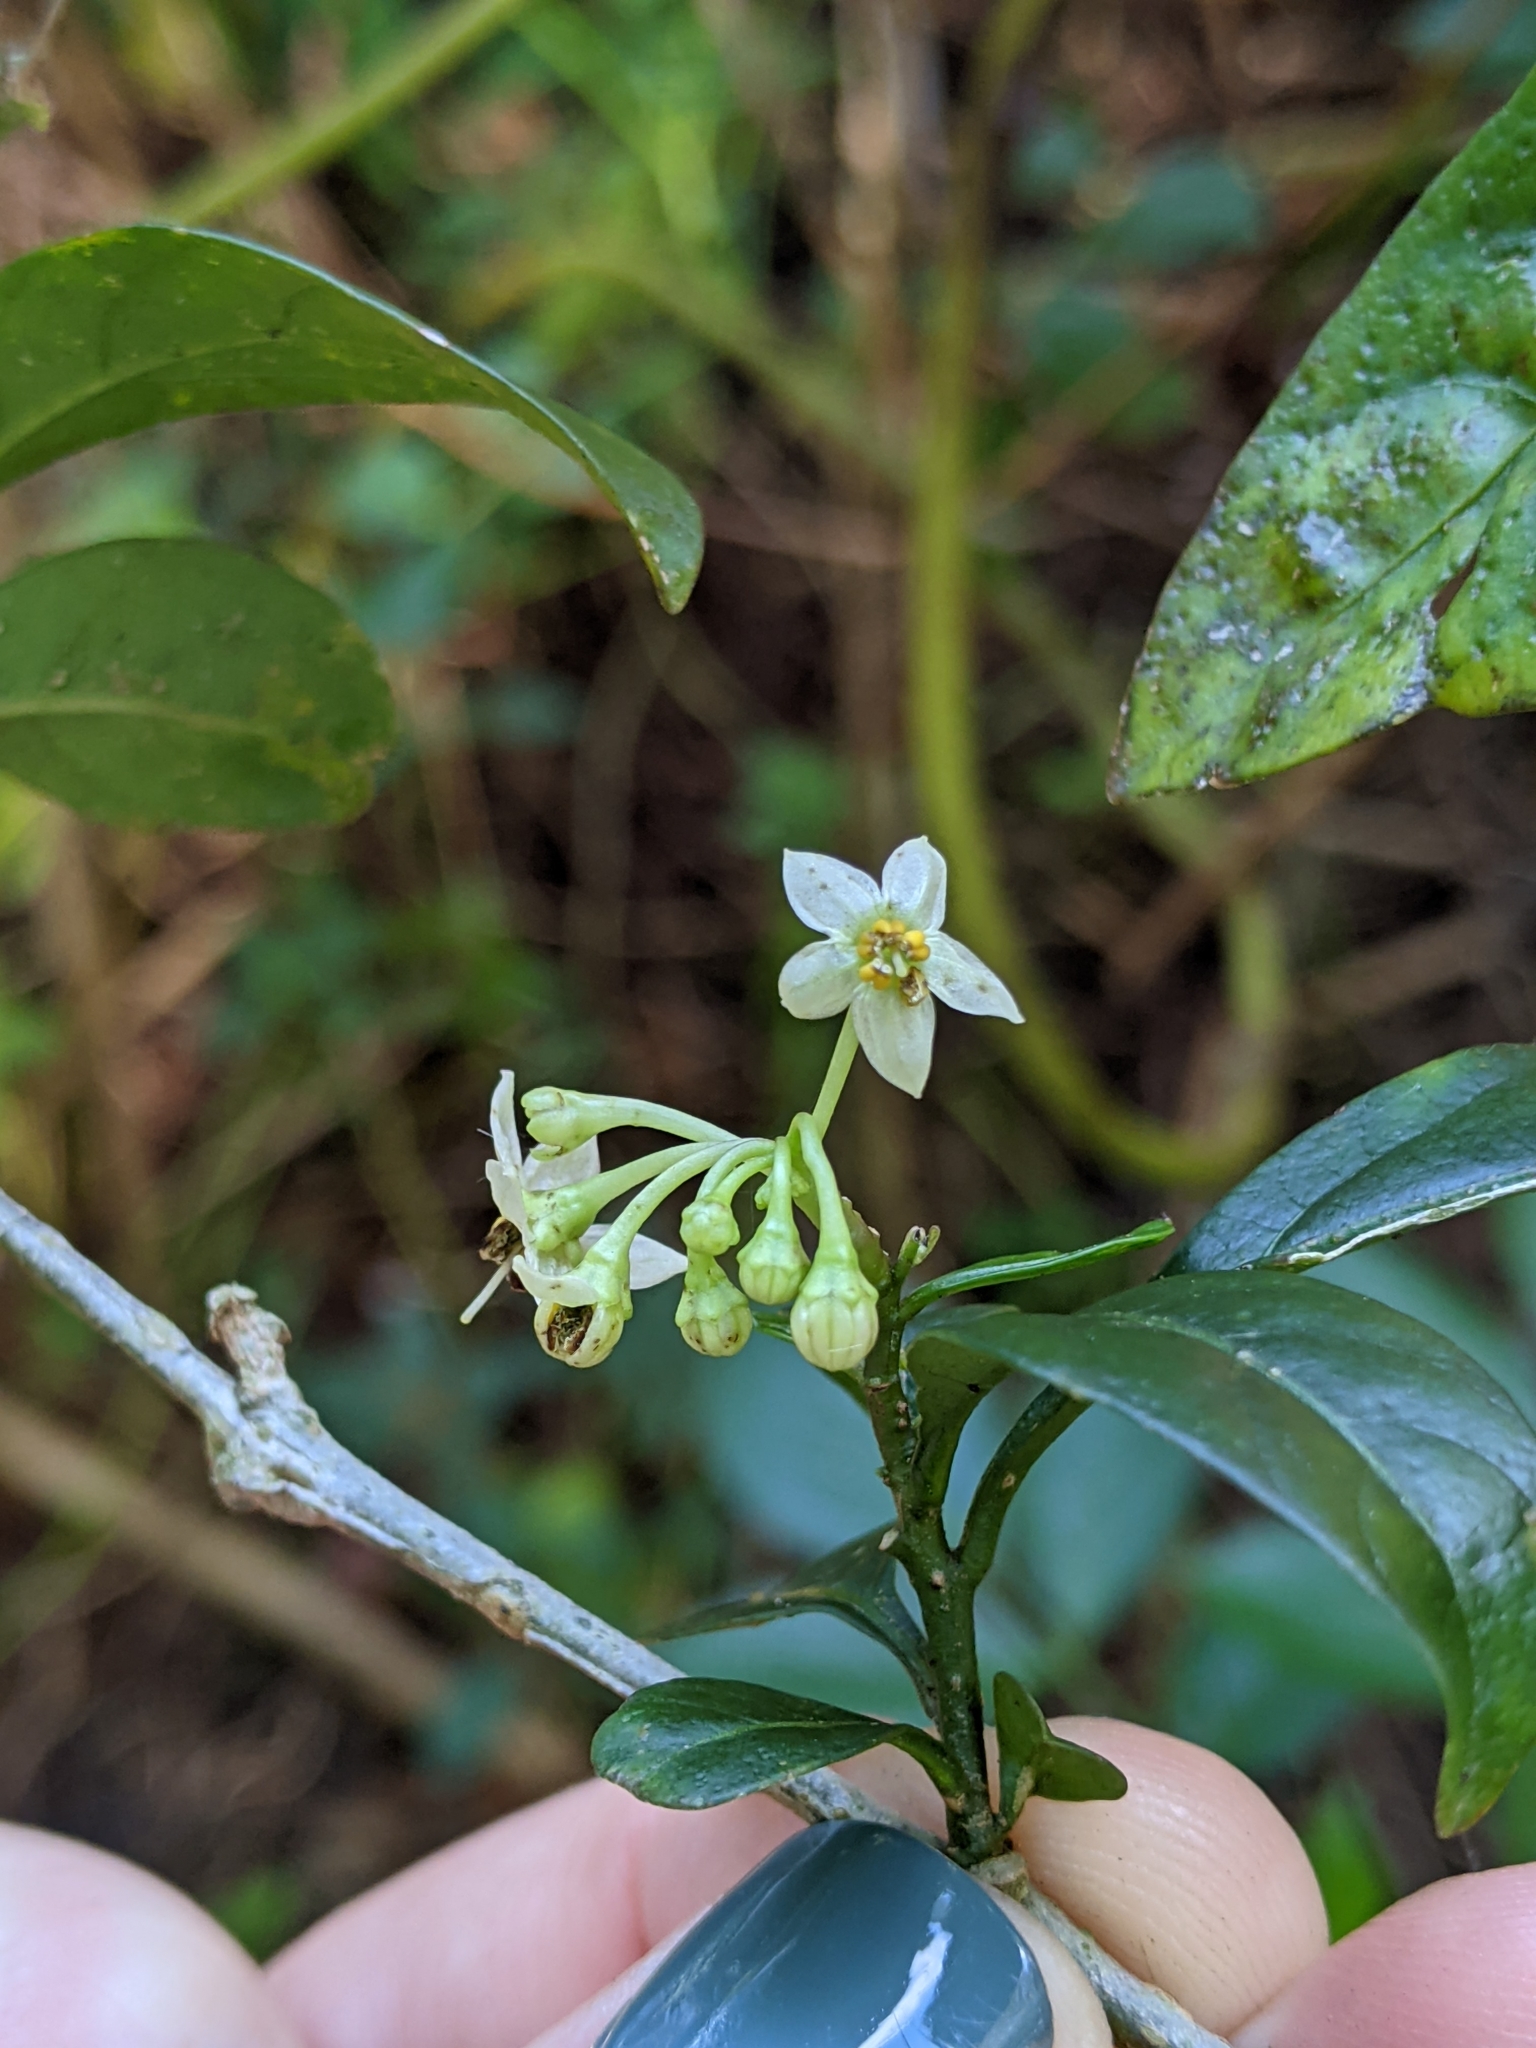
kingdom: Plantae
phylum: Tracheophyta
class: Magnoliopsida
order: Solanales
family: Solanaceae
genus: Solanum
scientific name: Solanum diphyllum
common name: Twoleaf nightshade
